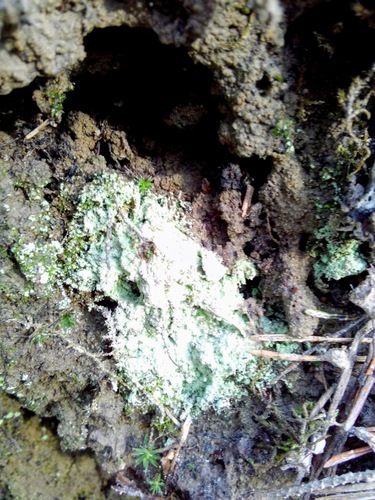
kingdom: Fungi
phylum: Ascomycota
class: Lecanoromycetes
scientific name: Lecanoromycetes
